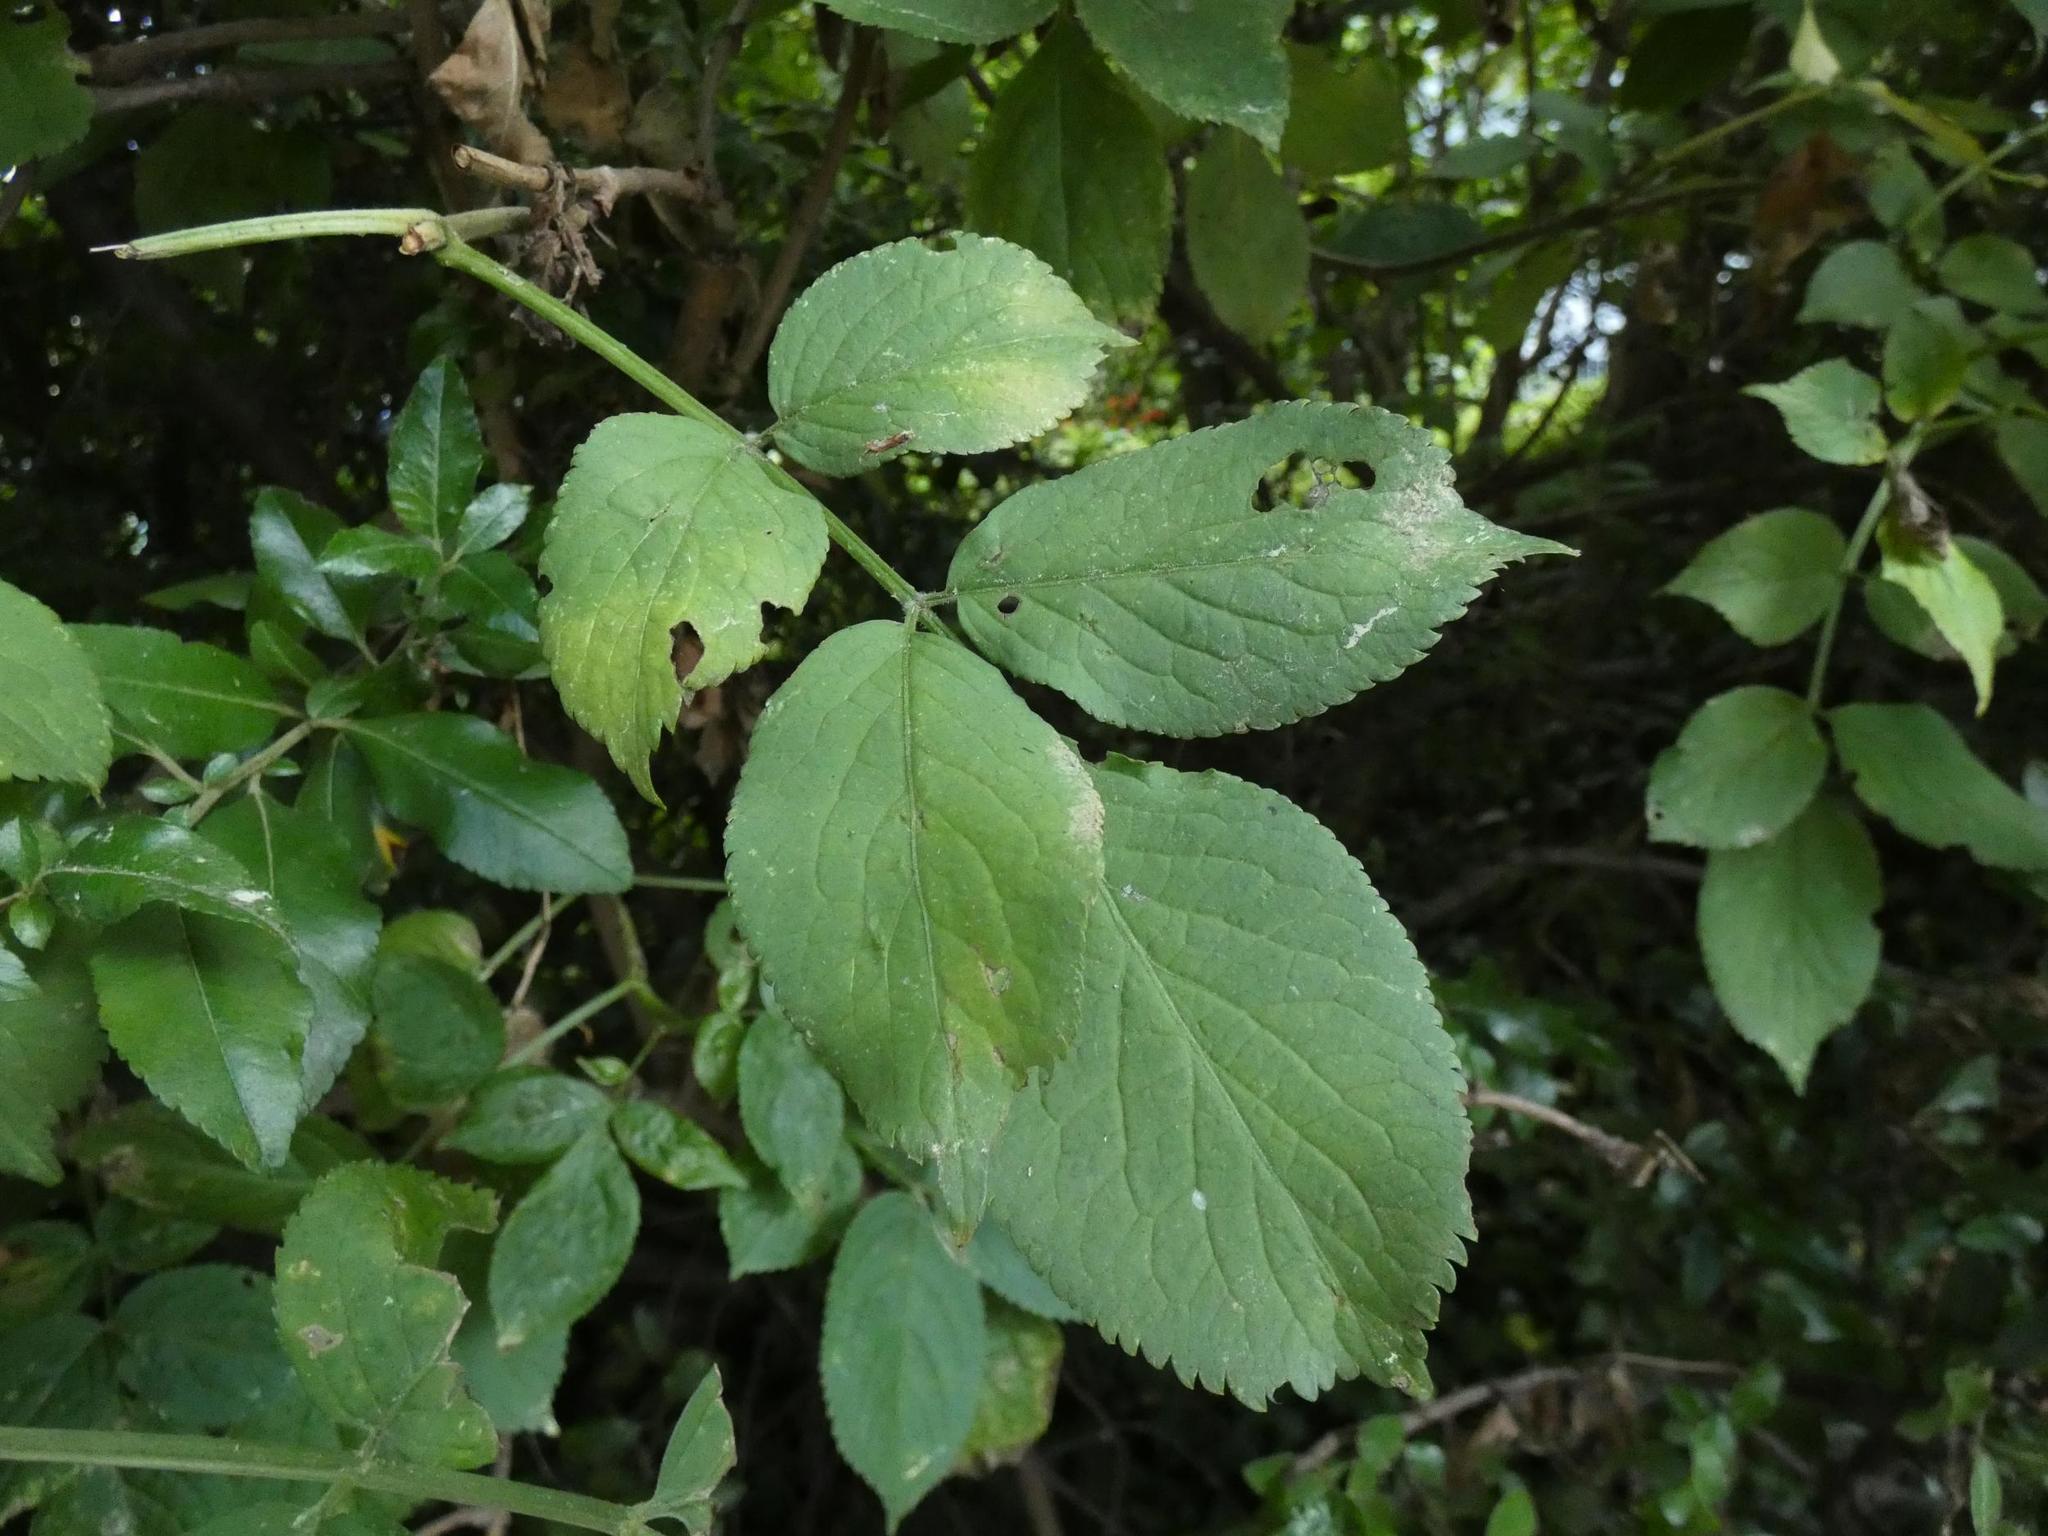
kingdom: Plantae
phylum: Tracheophyta
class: Magnoliopsida
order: Dipsacales
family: Viburnaceae
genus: Sambucus
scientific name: Sambucus nigra
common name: Elder
